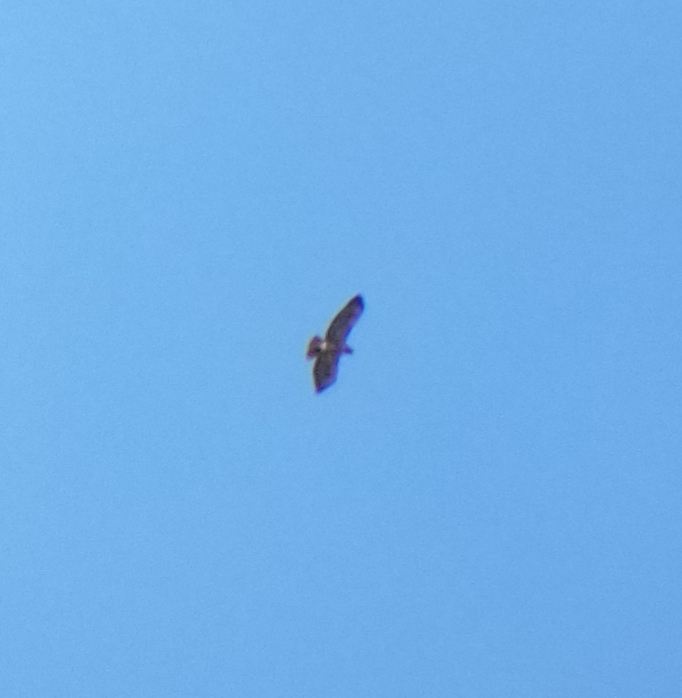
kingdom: Animalia
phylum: Chordata
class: Aves
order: Accipitriformes
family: Accipitridae
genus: Buteo
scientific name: Buteo jamaicensis
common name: Red-tailed hawk
